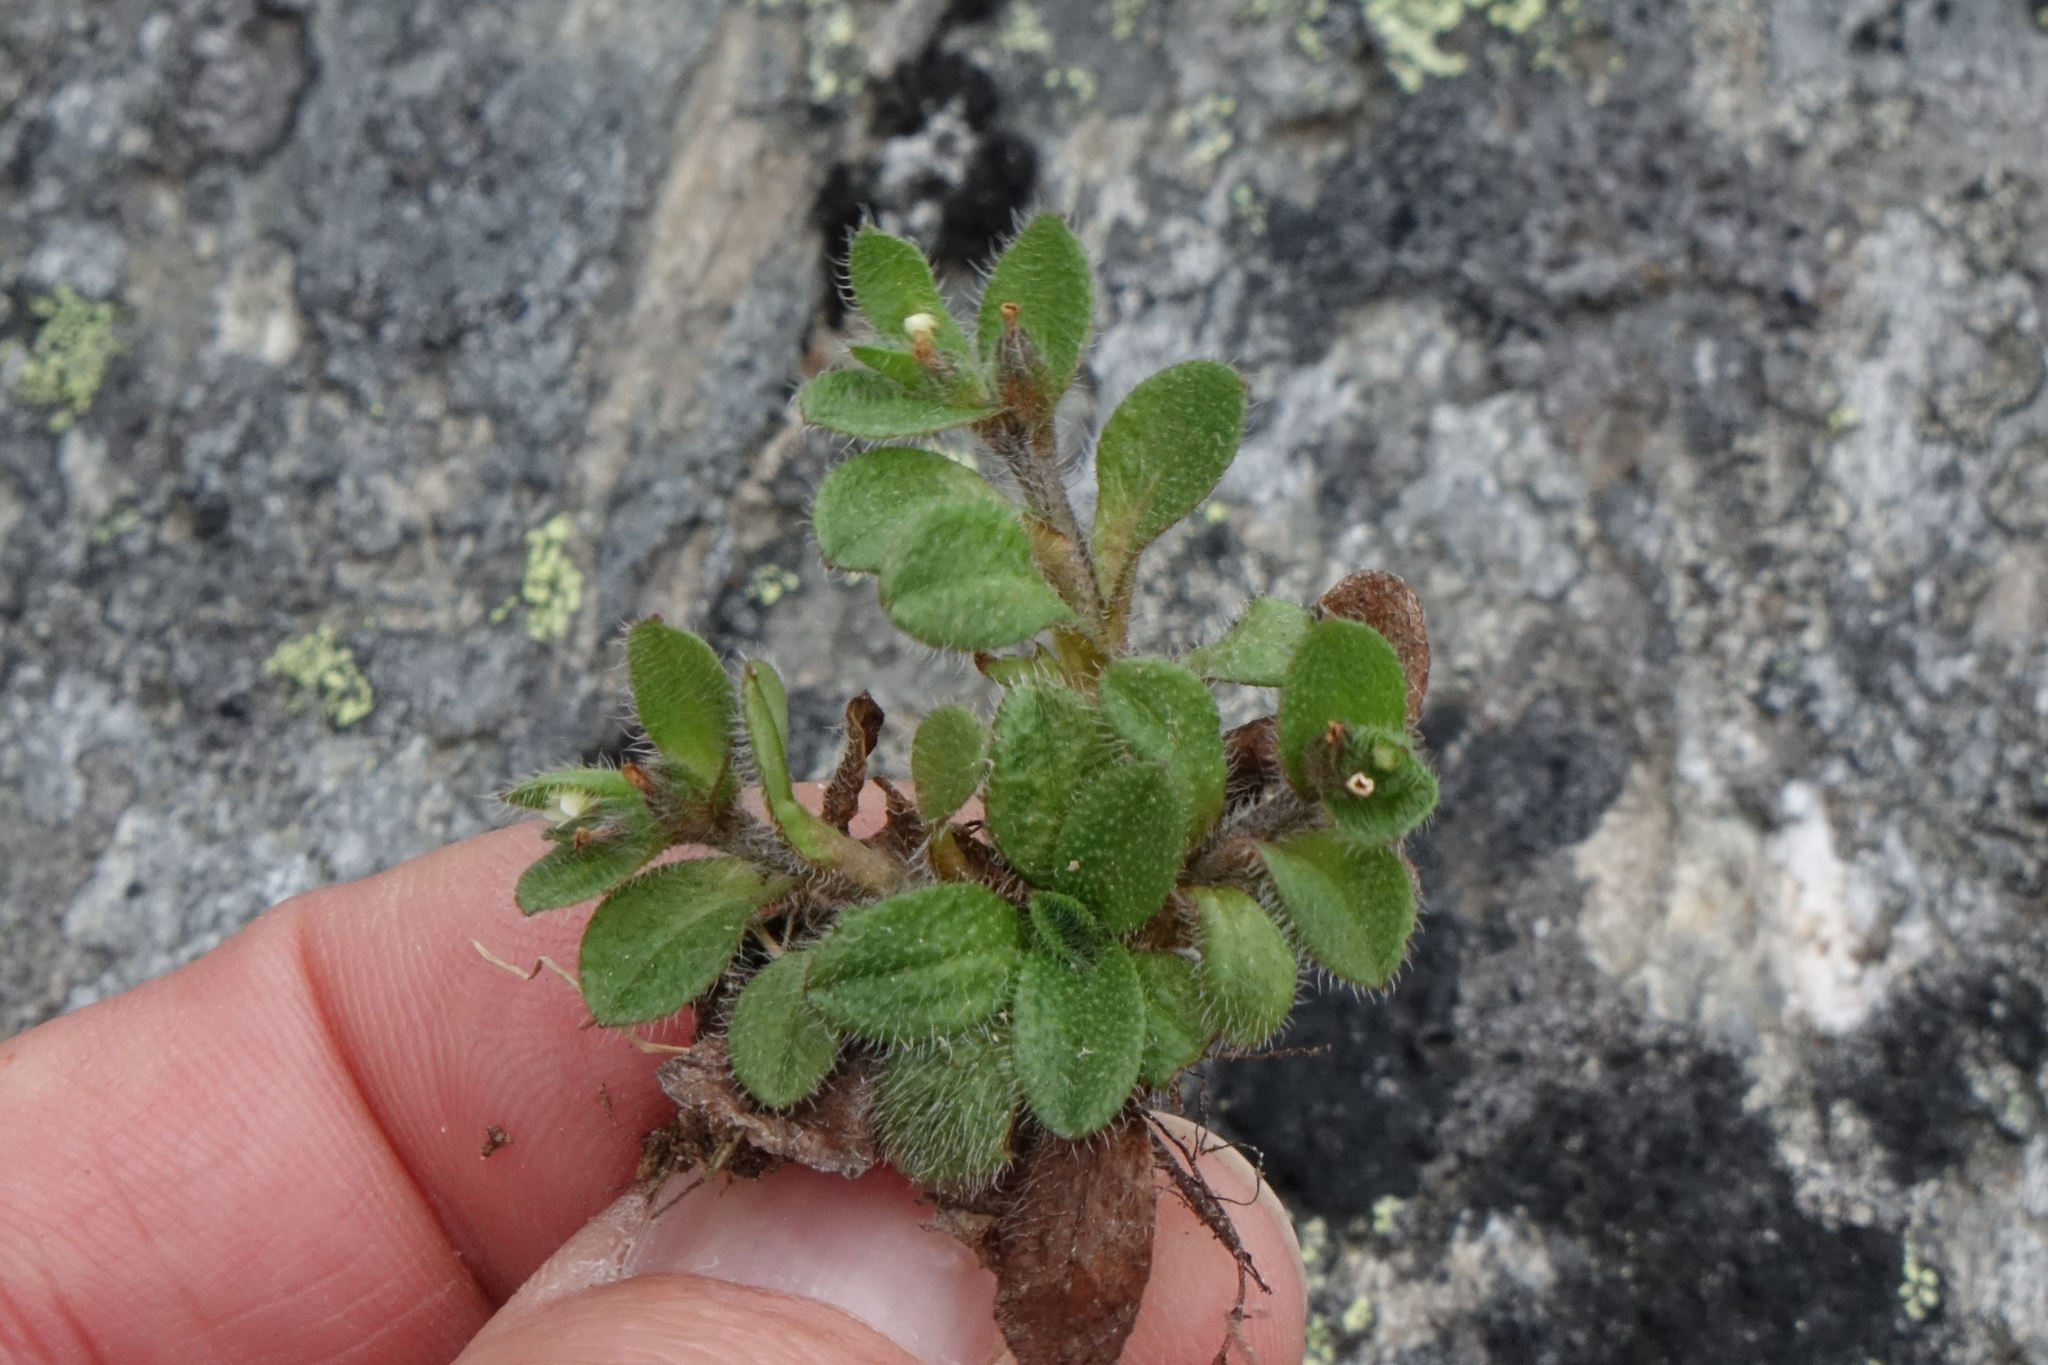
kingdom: Plantae
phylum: Tracheophyta
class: Magnoliopsida
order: Boraginales
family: Boraginaceae
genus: Myosotis
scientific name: Myosotis antarctica
